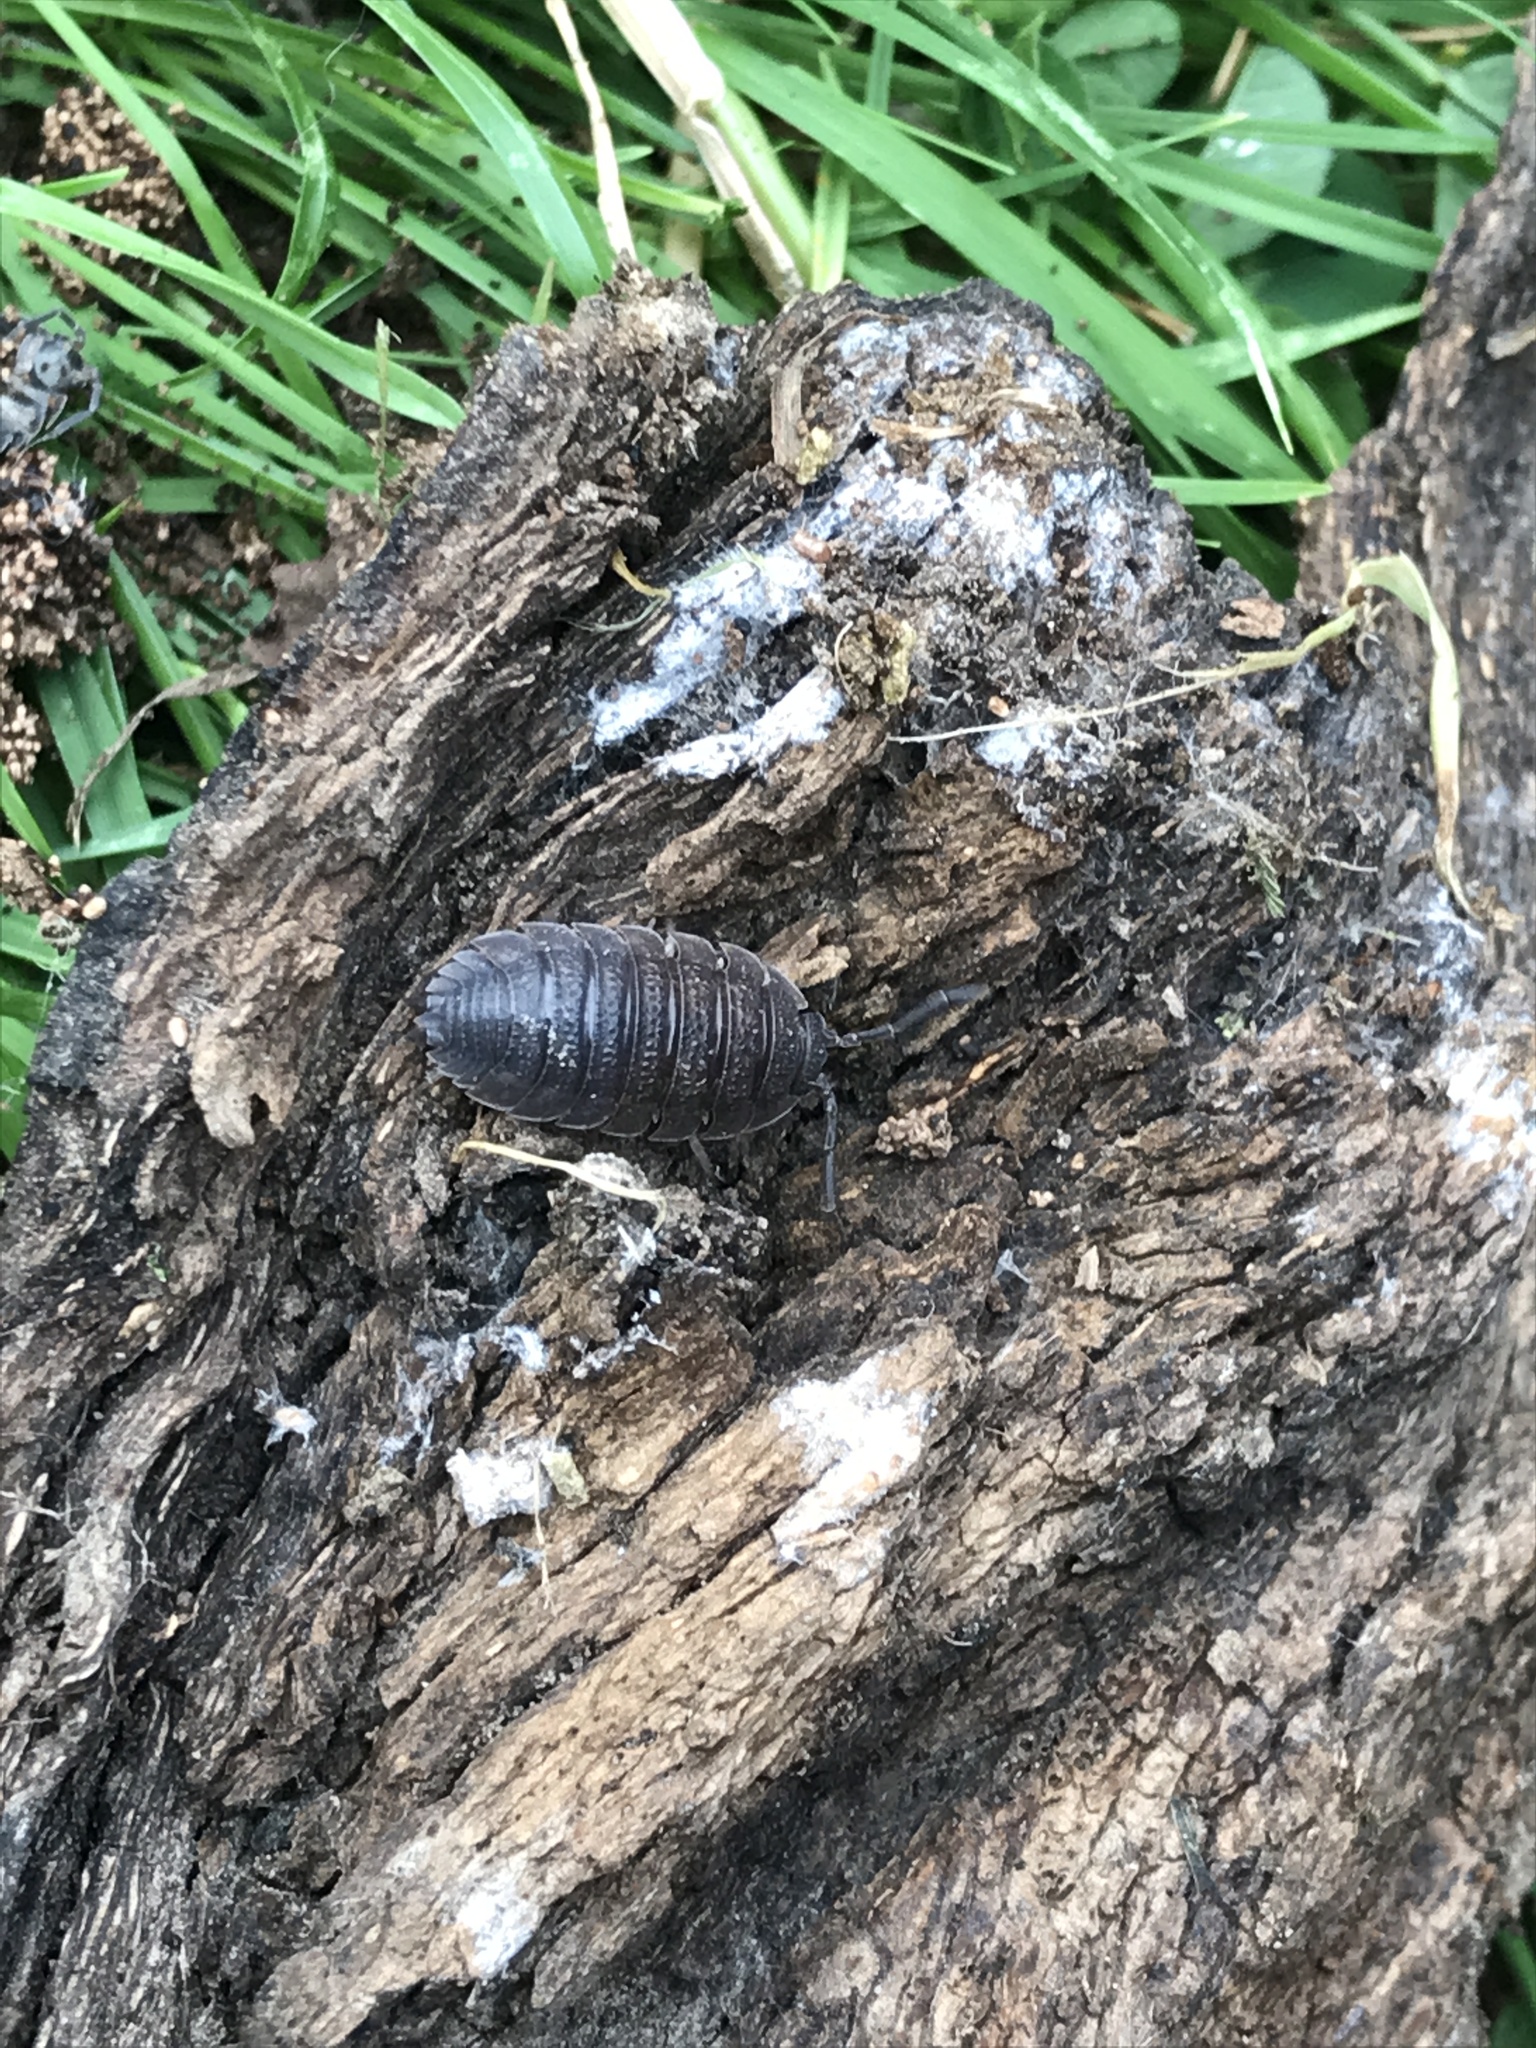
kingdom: Animalia
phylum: Arthropoda
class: Malacostraca
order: Isopoda
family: Porcellionidae
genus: Porcellio
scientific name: Porcellio scaber
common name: Common rough woodlouse
